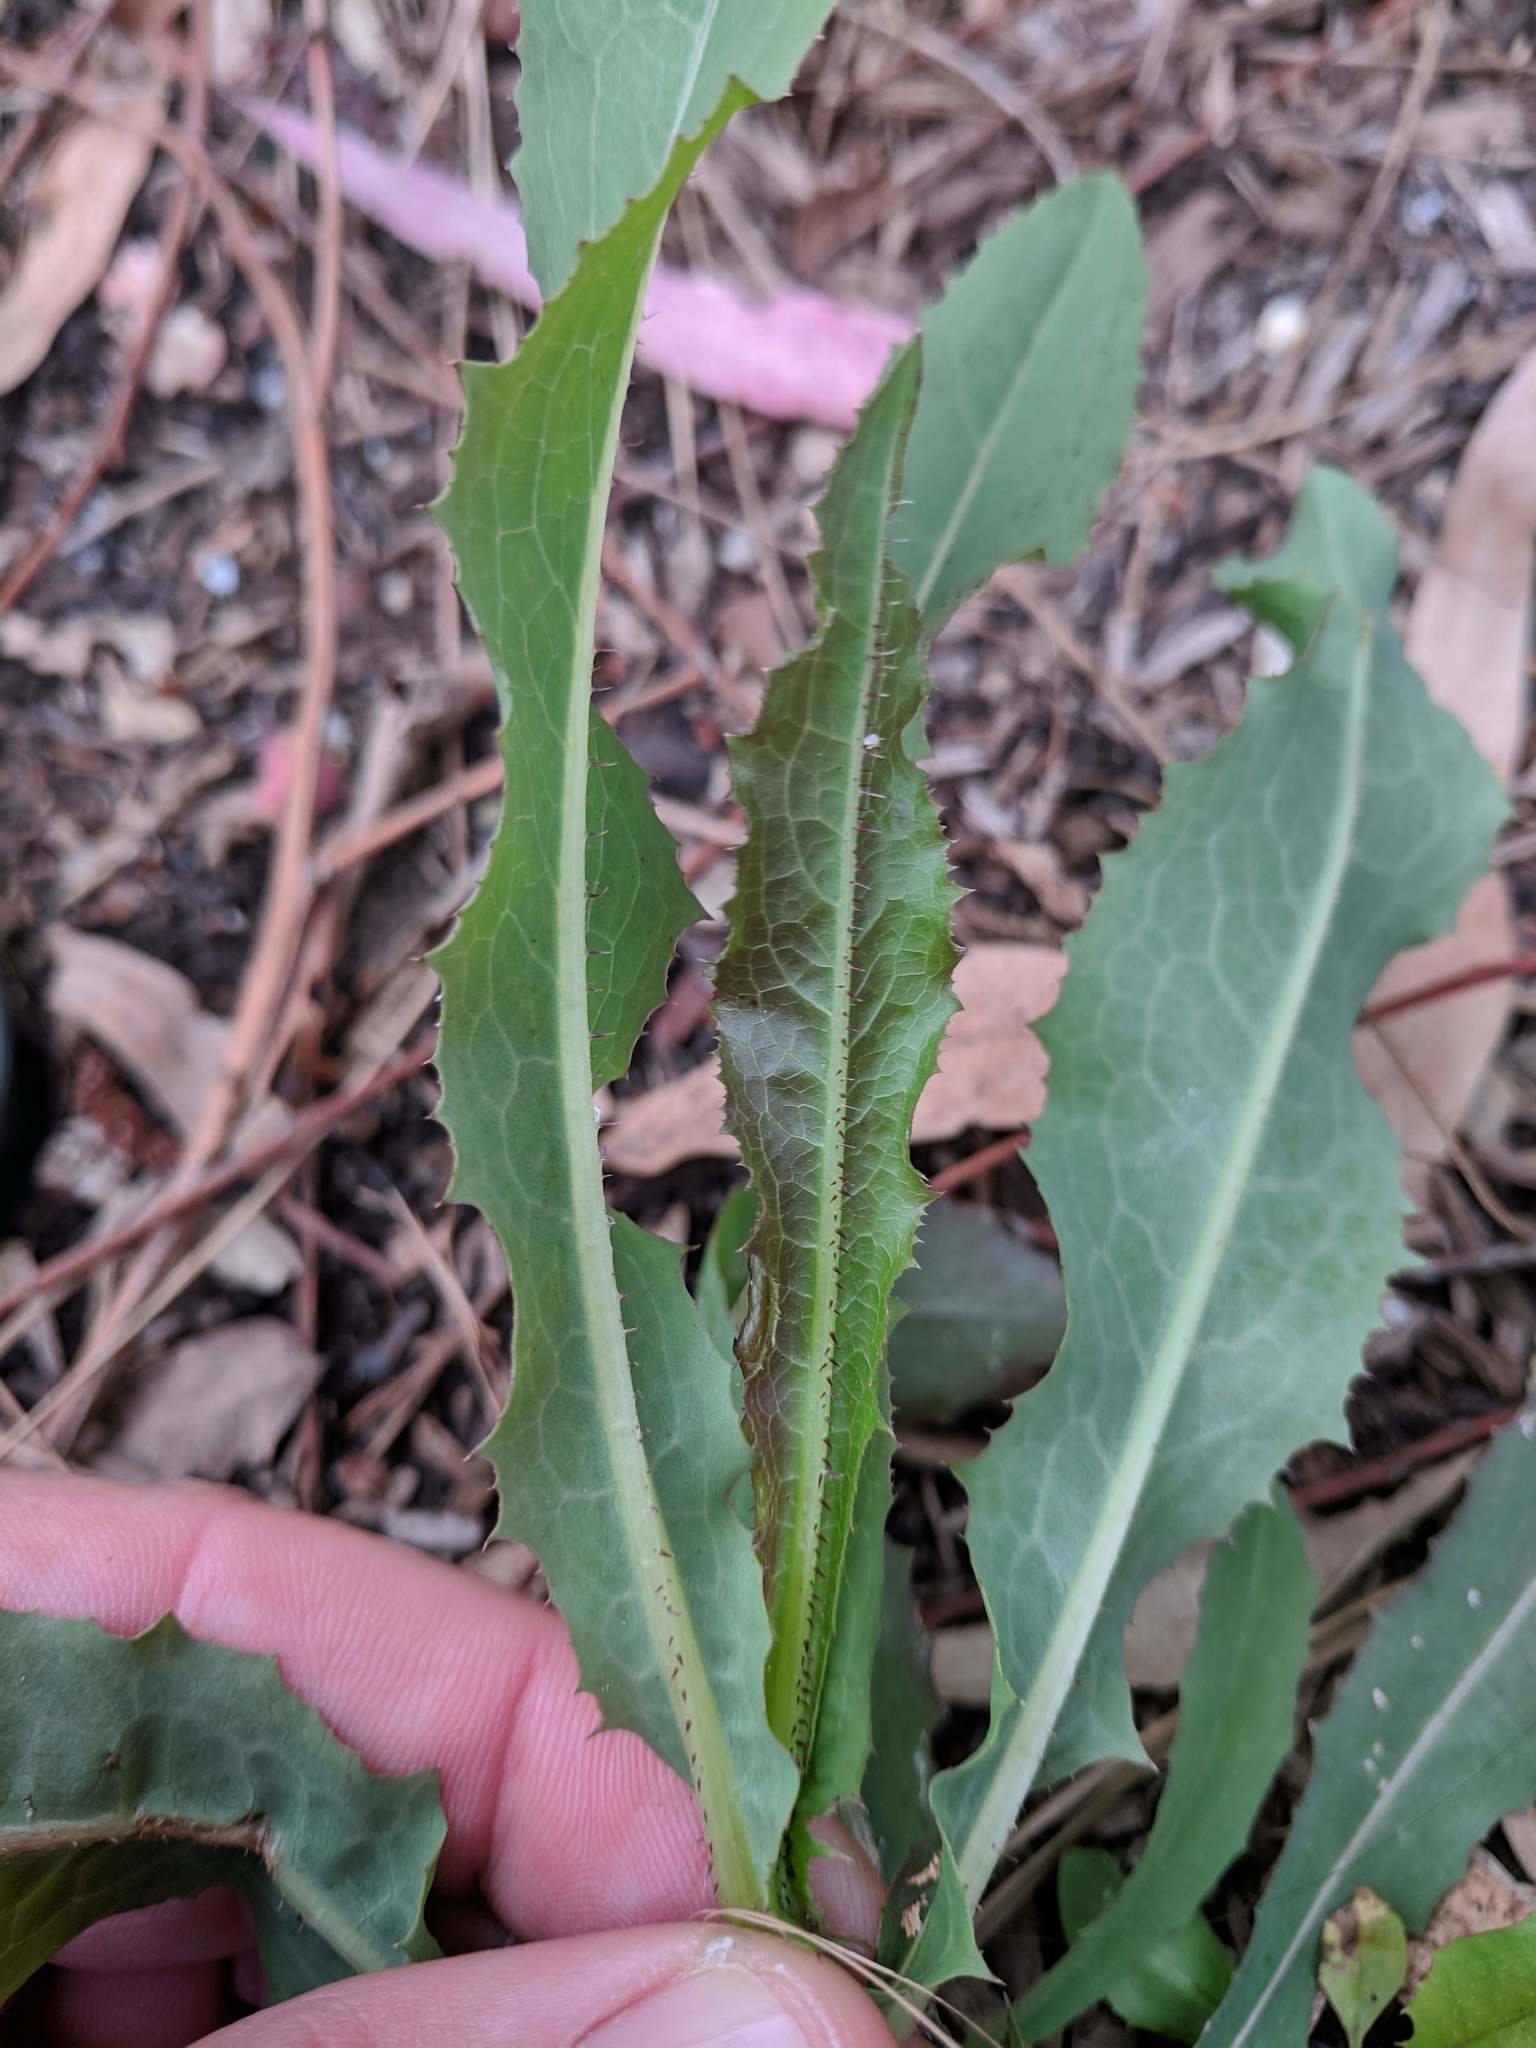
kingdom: Plantae
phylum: Tracheophyta
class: Magnoliopsida
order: Asterales
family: Asteraceae
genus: Lactuca
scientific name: Lactuca serriola
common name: Prickly lettuce
